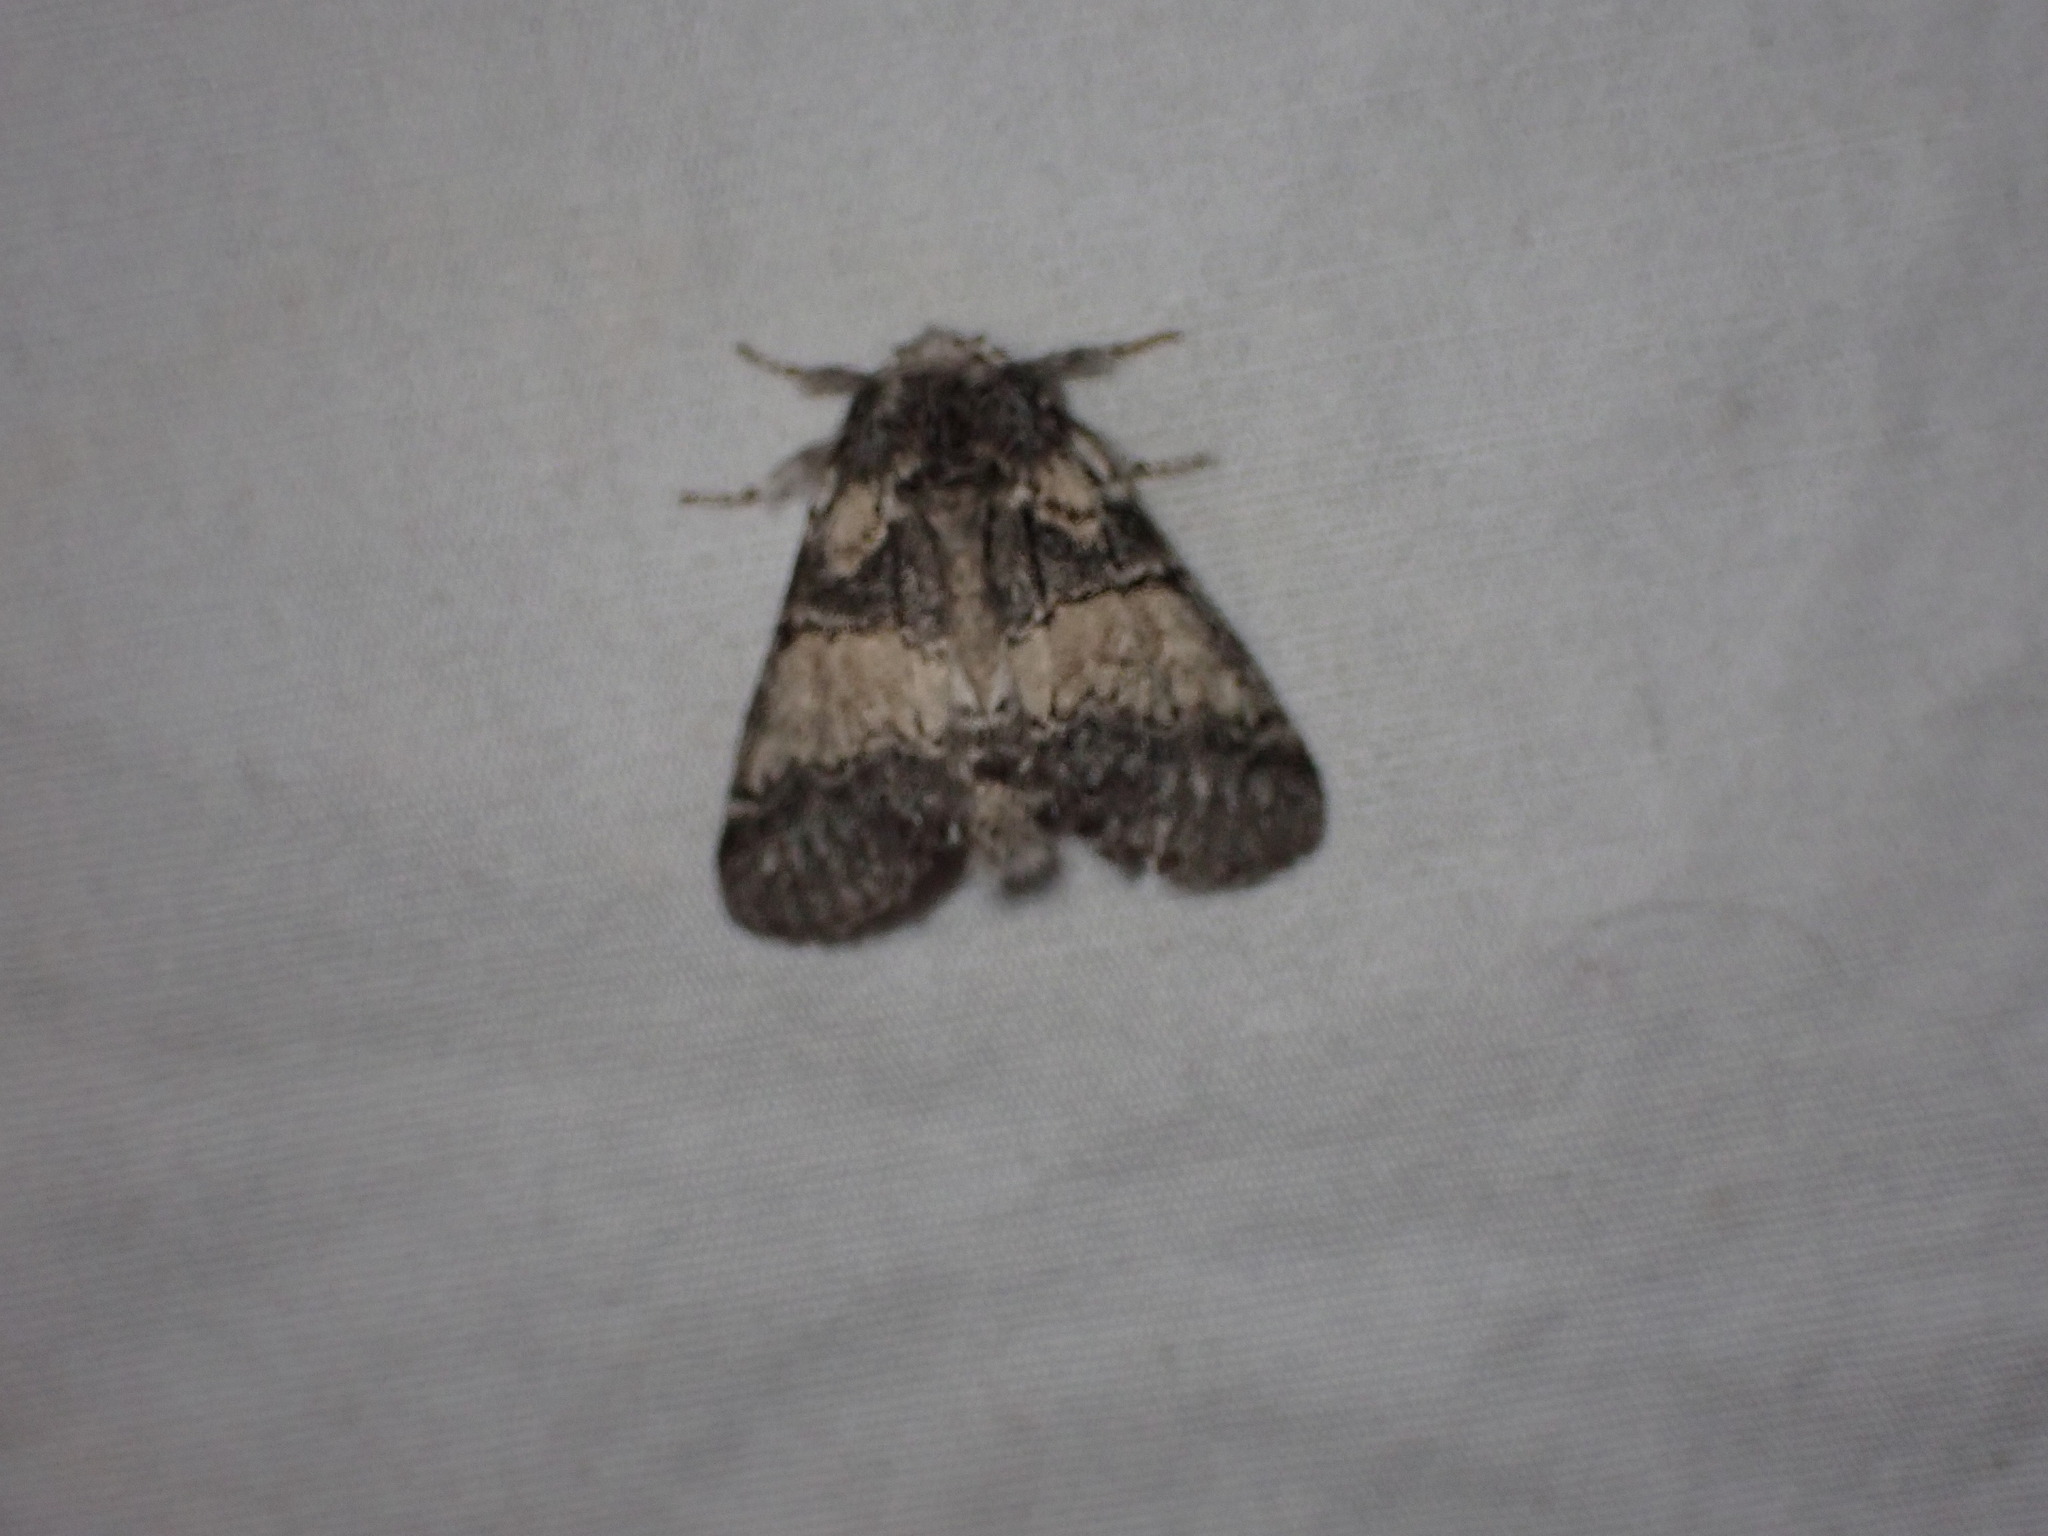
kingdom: Animalia
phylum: Arthropoda
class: Insecta
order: Lepidoptera
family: Notodontidae
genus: Gluphisia
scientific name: Gluphisia septentrionis
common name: Common gluphisia
